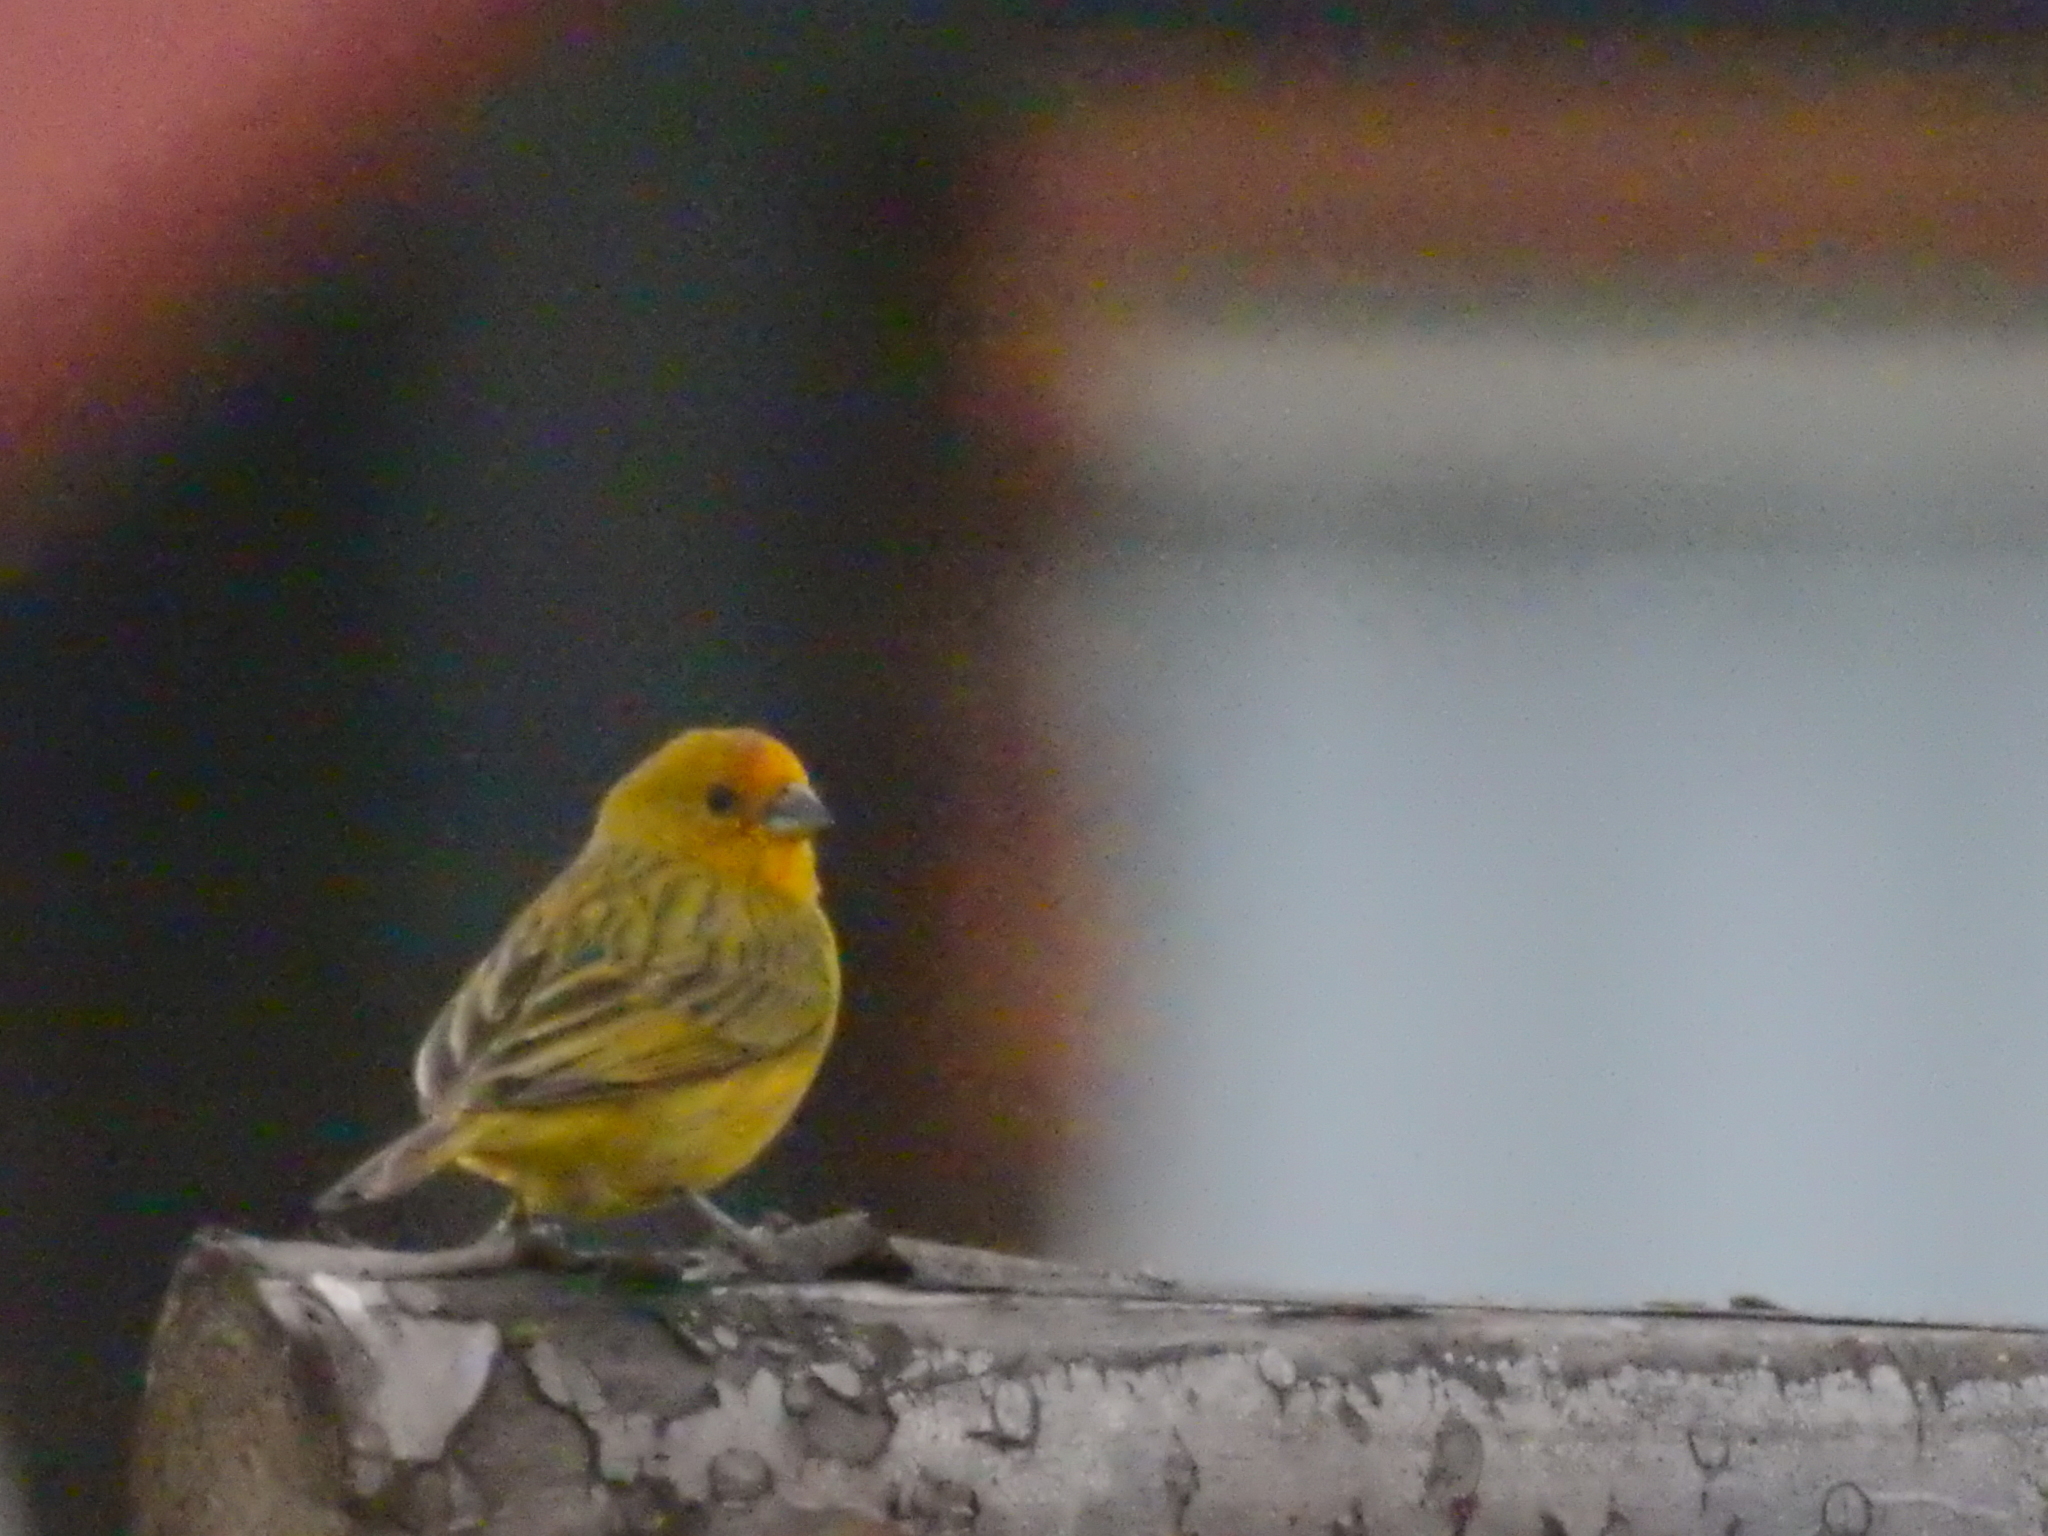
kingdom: Animalia
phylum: Chordata
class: Aves
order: Passeriformes
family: Thraupidae
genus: Sicalis
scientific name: Sicalis flaveola
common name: Saffron finch
